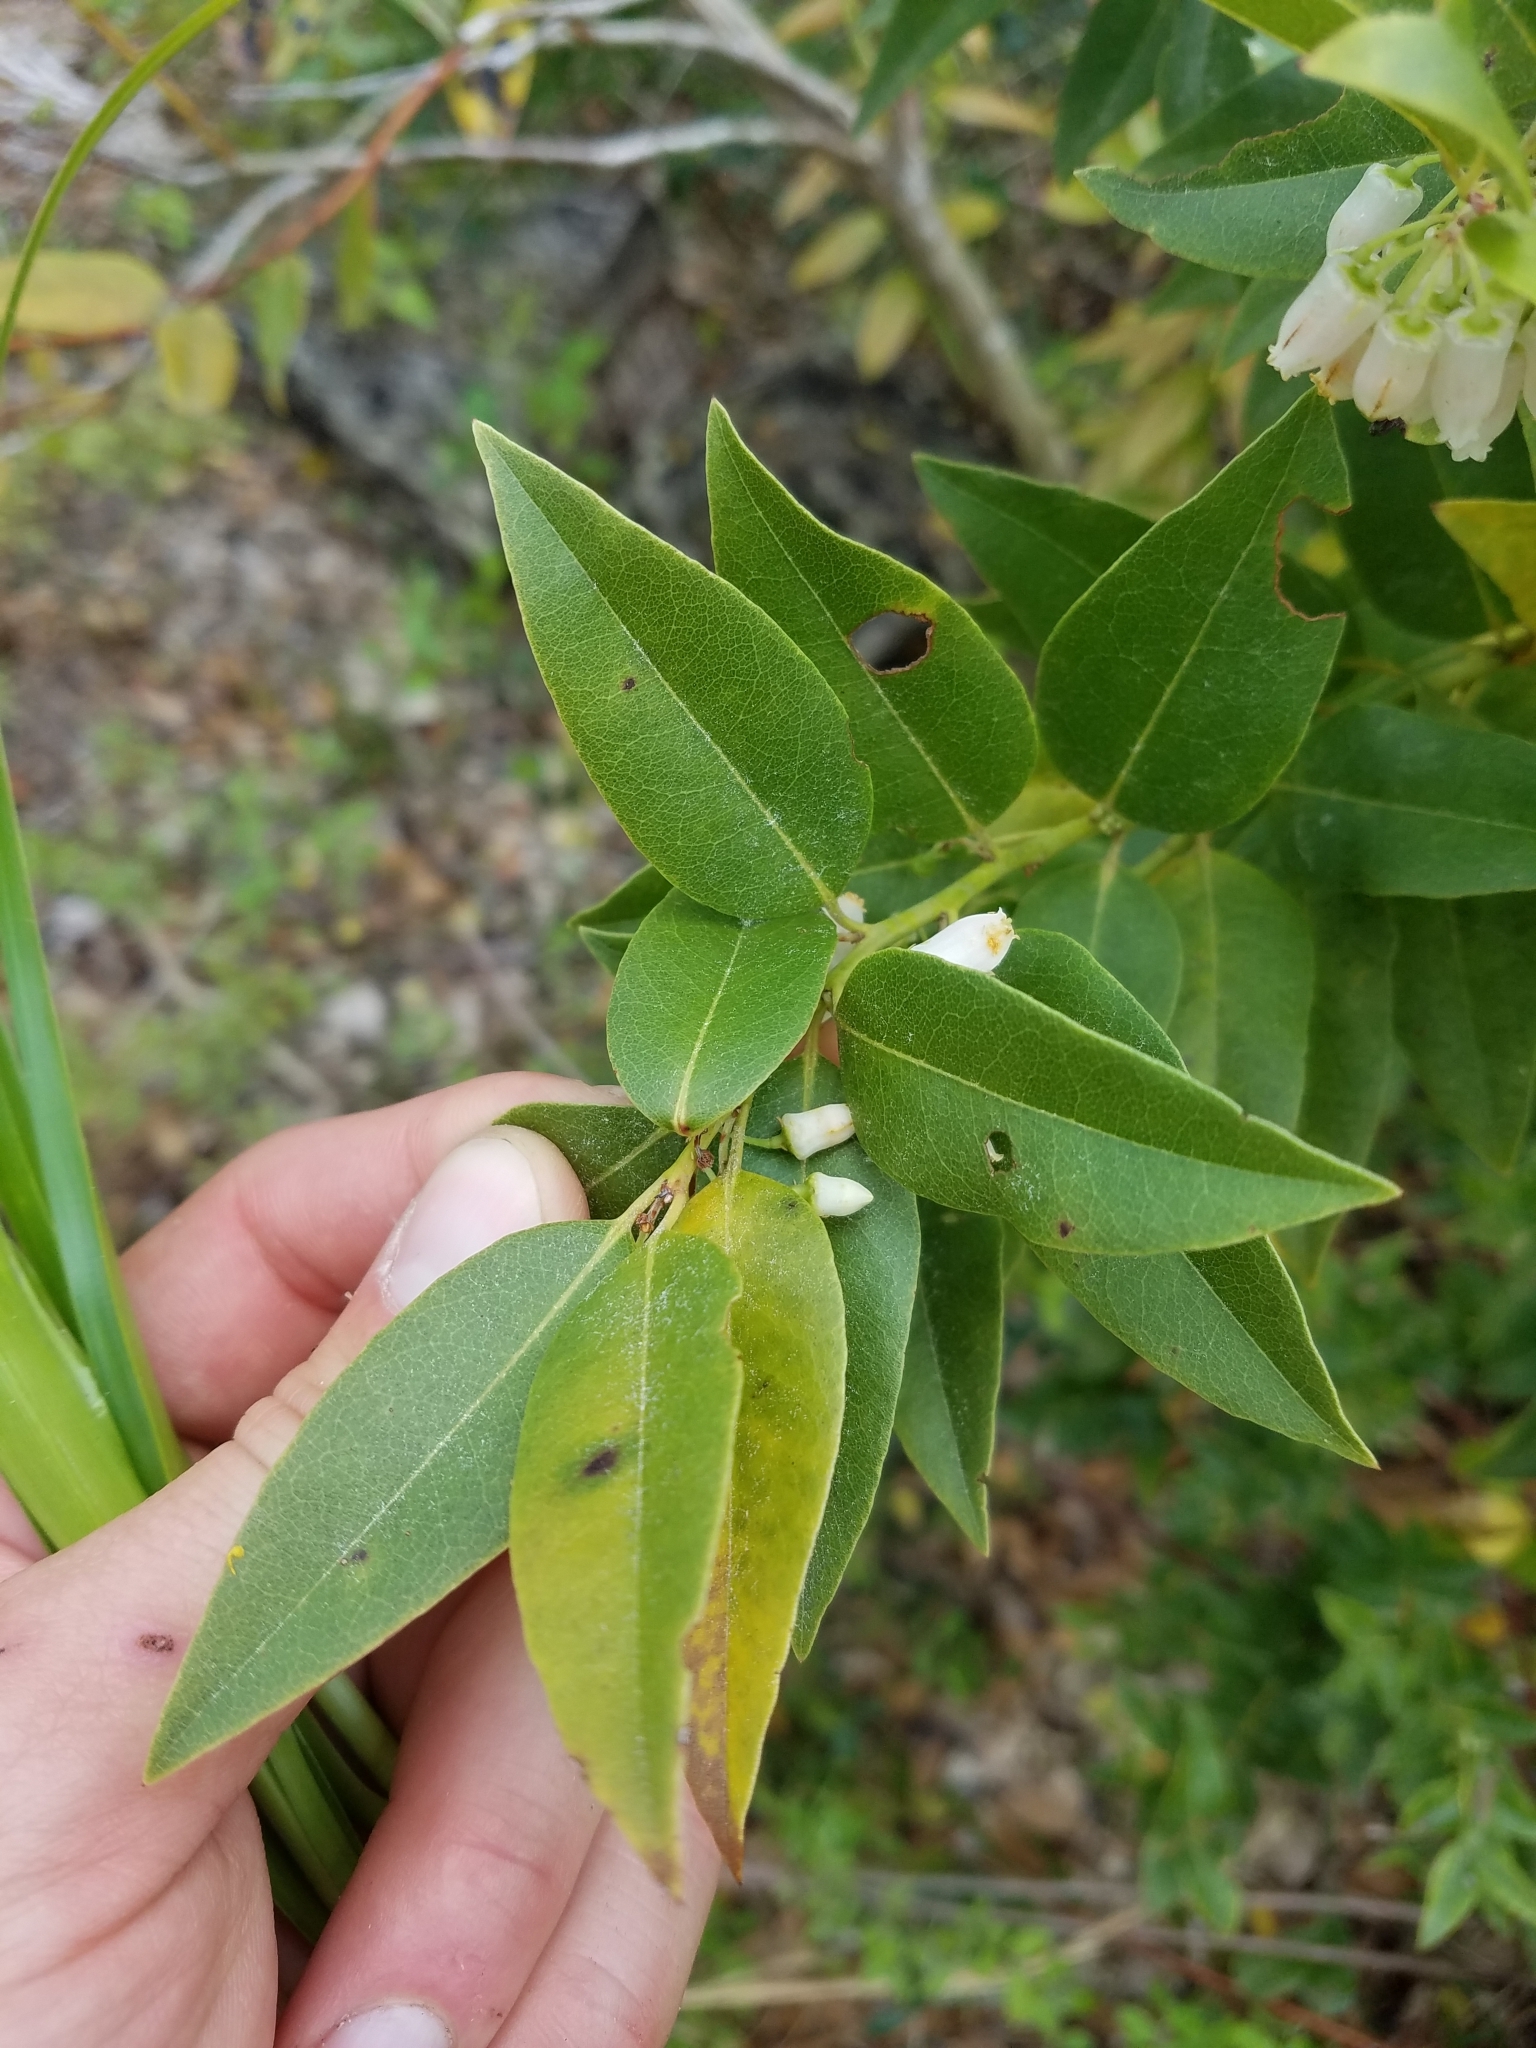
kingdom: Plantae
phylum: Tracheophyta
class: Magnoliopsida
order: Ericales
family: Ericaceae
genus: Agarista
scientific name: Agarista populifolia
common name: Pipeplant
